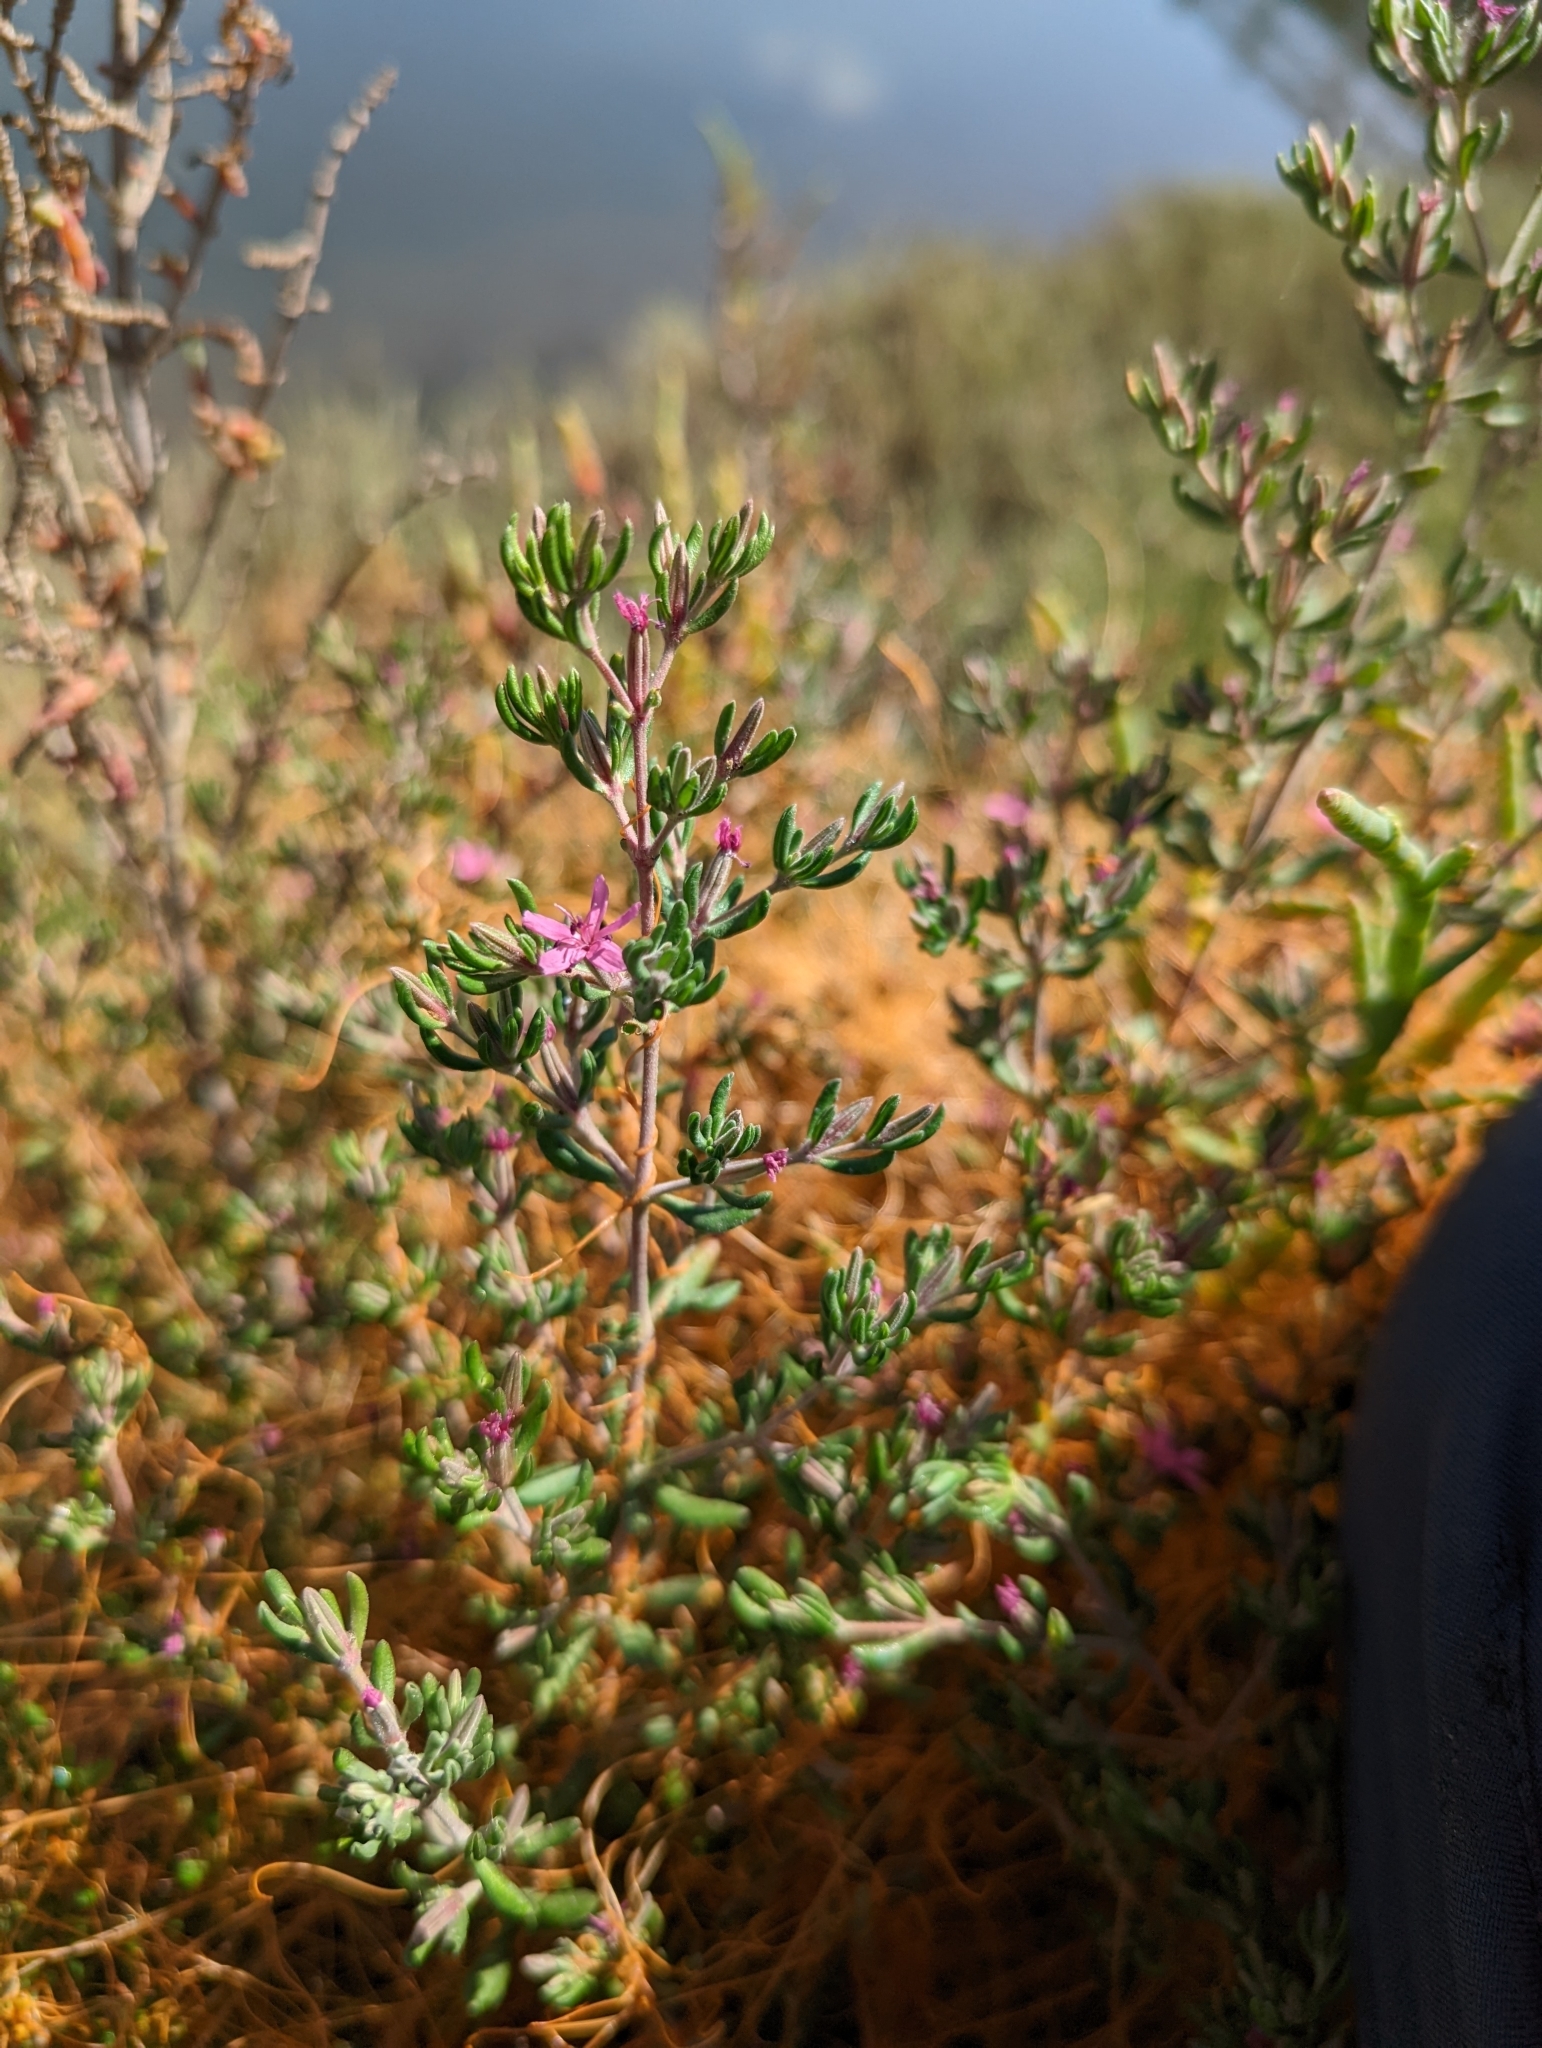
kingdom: Plantae
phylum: Tracheophyta
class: Magnoliopsida
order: Caryophyllales
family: Frankeniaceae
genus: Frankenia
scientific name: Frankenia salina
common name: Alkali seaheath
